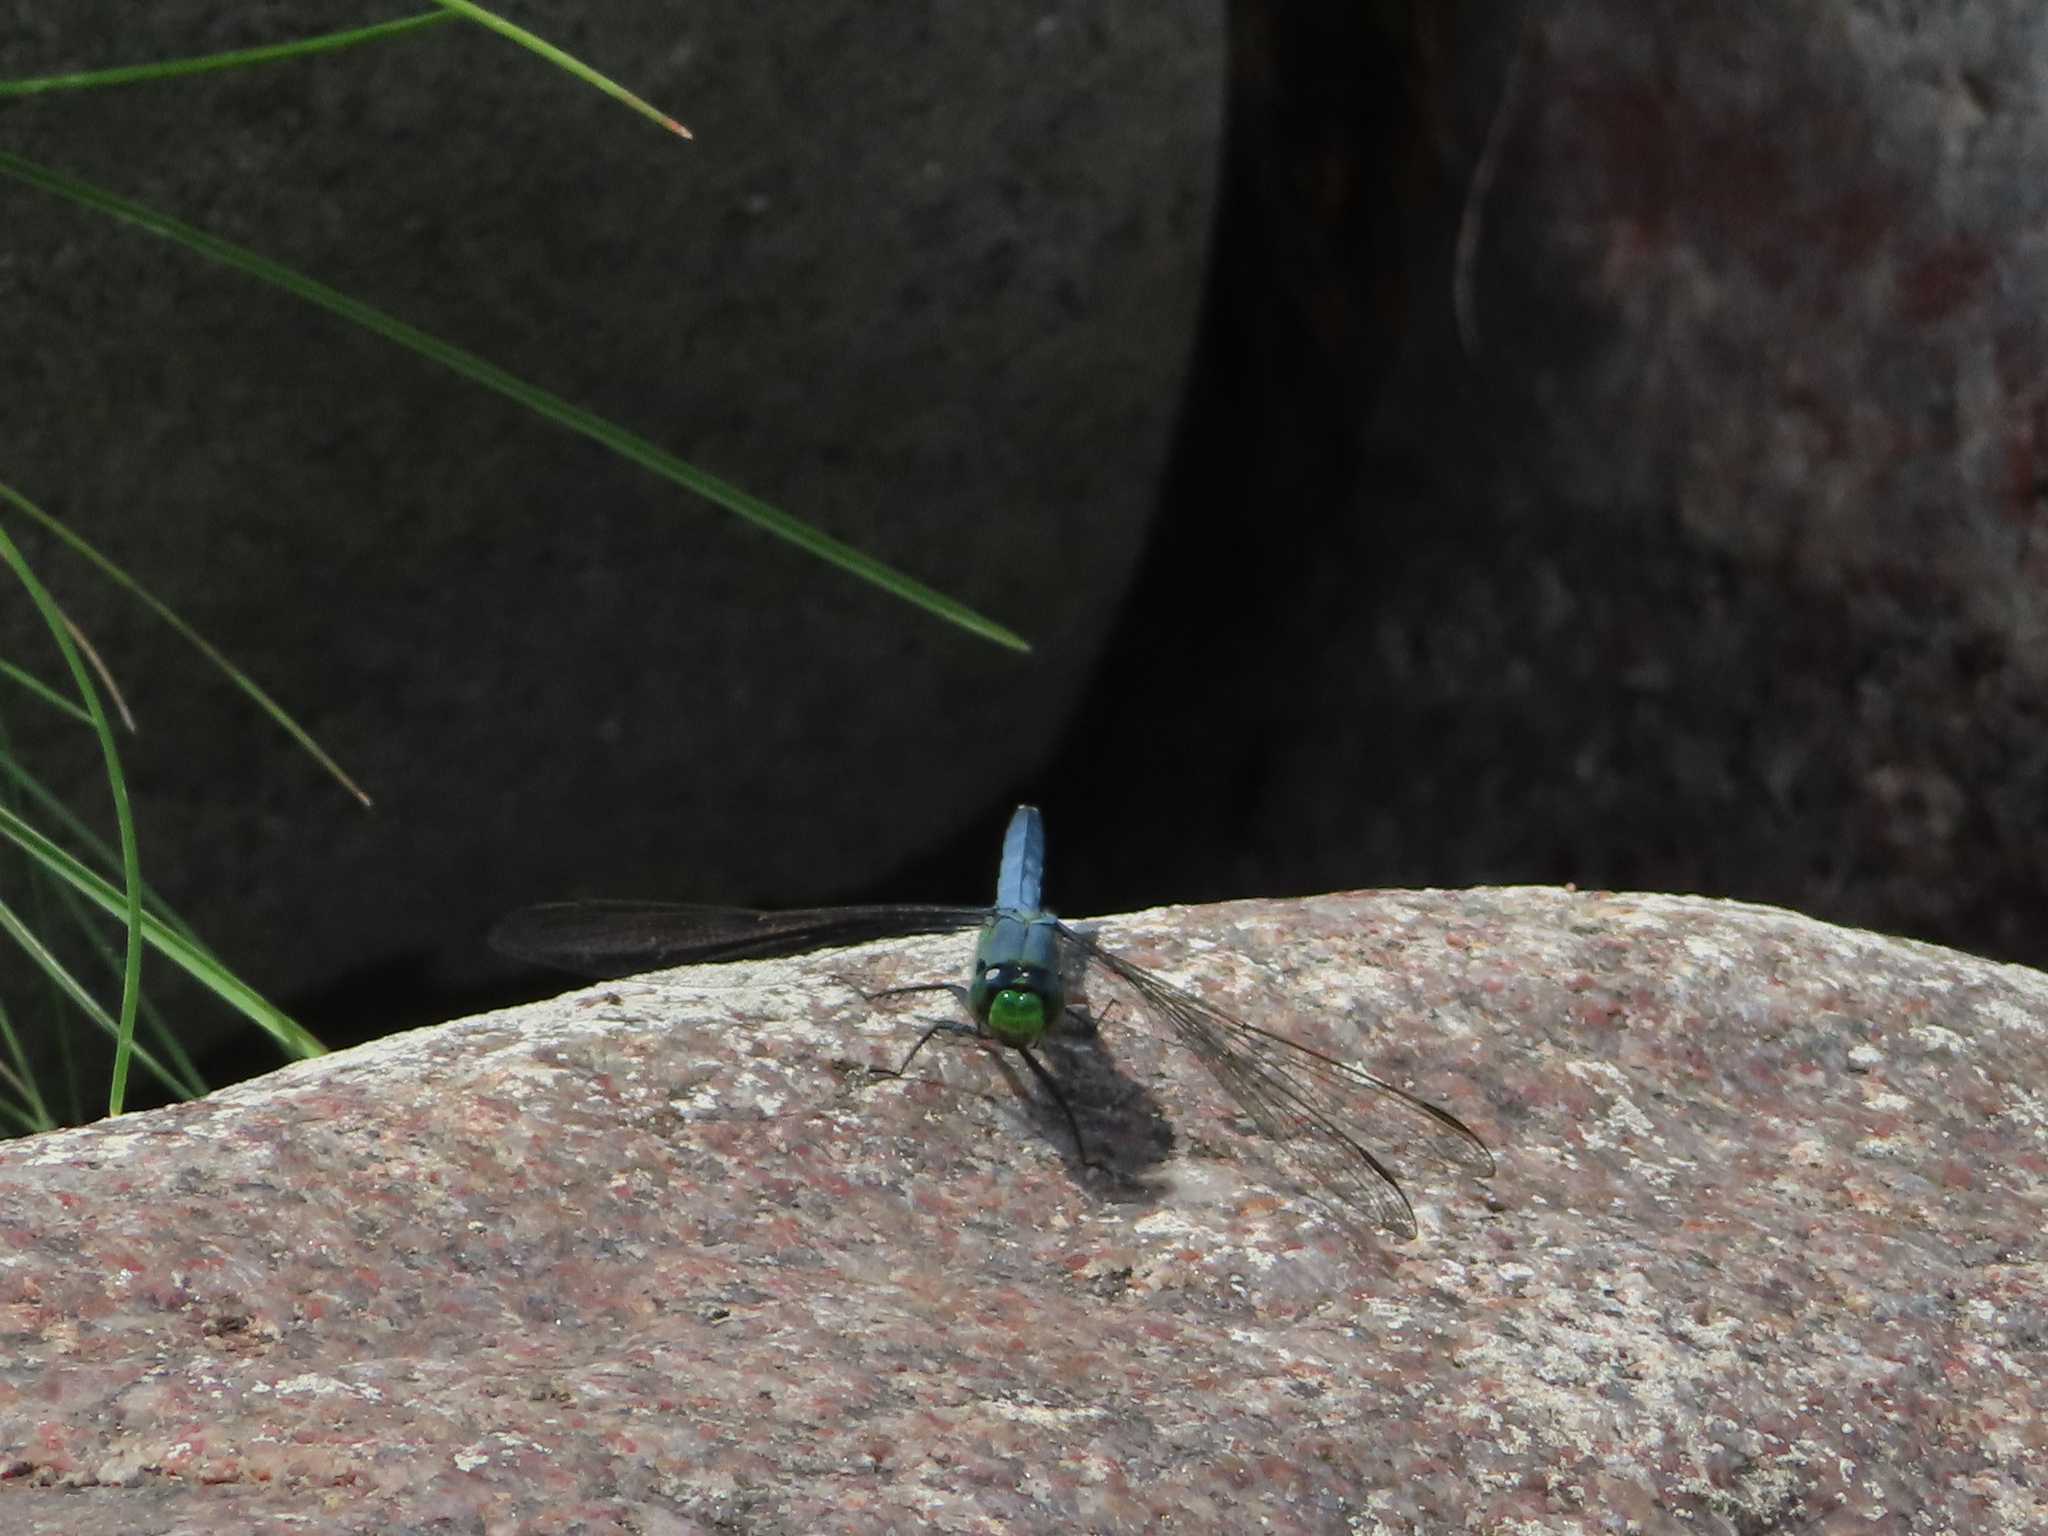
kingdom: Animalia
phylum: Arthropoda
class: Insecta
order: Odonata
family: Libellulidae
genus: Erythemis
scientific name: Erythemis simplicicollis
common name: Eastern pondhawk
